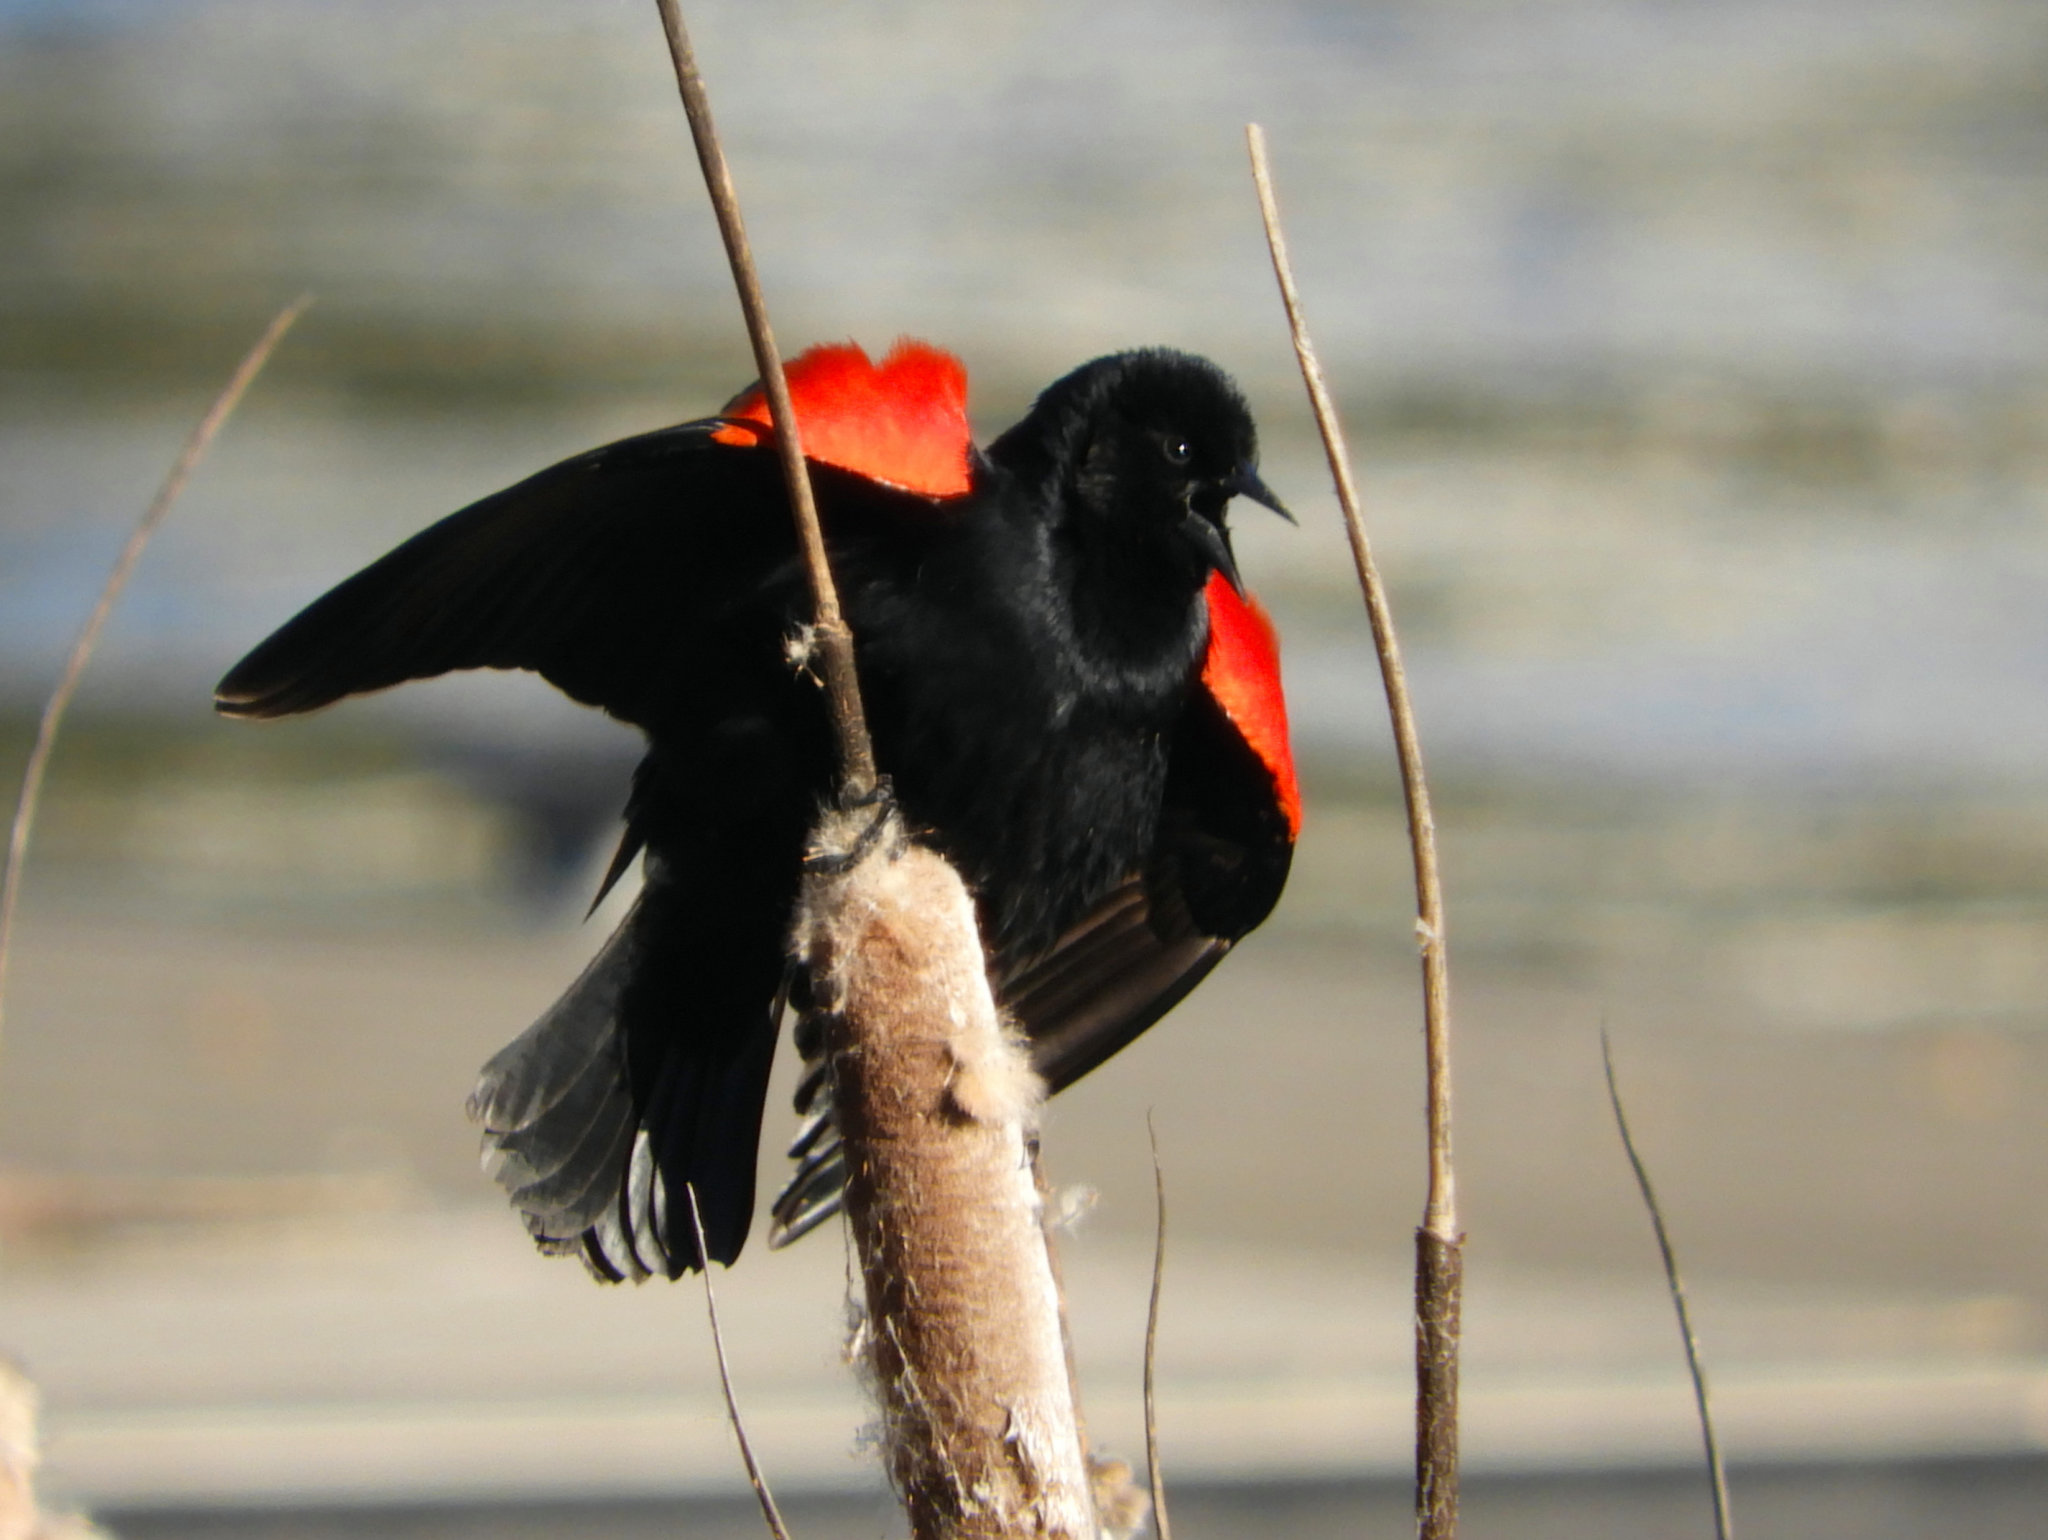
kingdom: Animalia
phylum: Chordata
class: Aves
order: Passeriformes
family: Icteridae
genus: Agelaius
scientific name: Agelaius phoeniceus
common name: Red-winged blackbird
